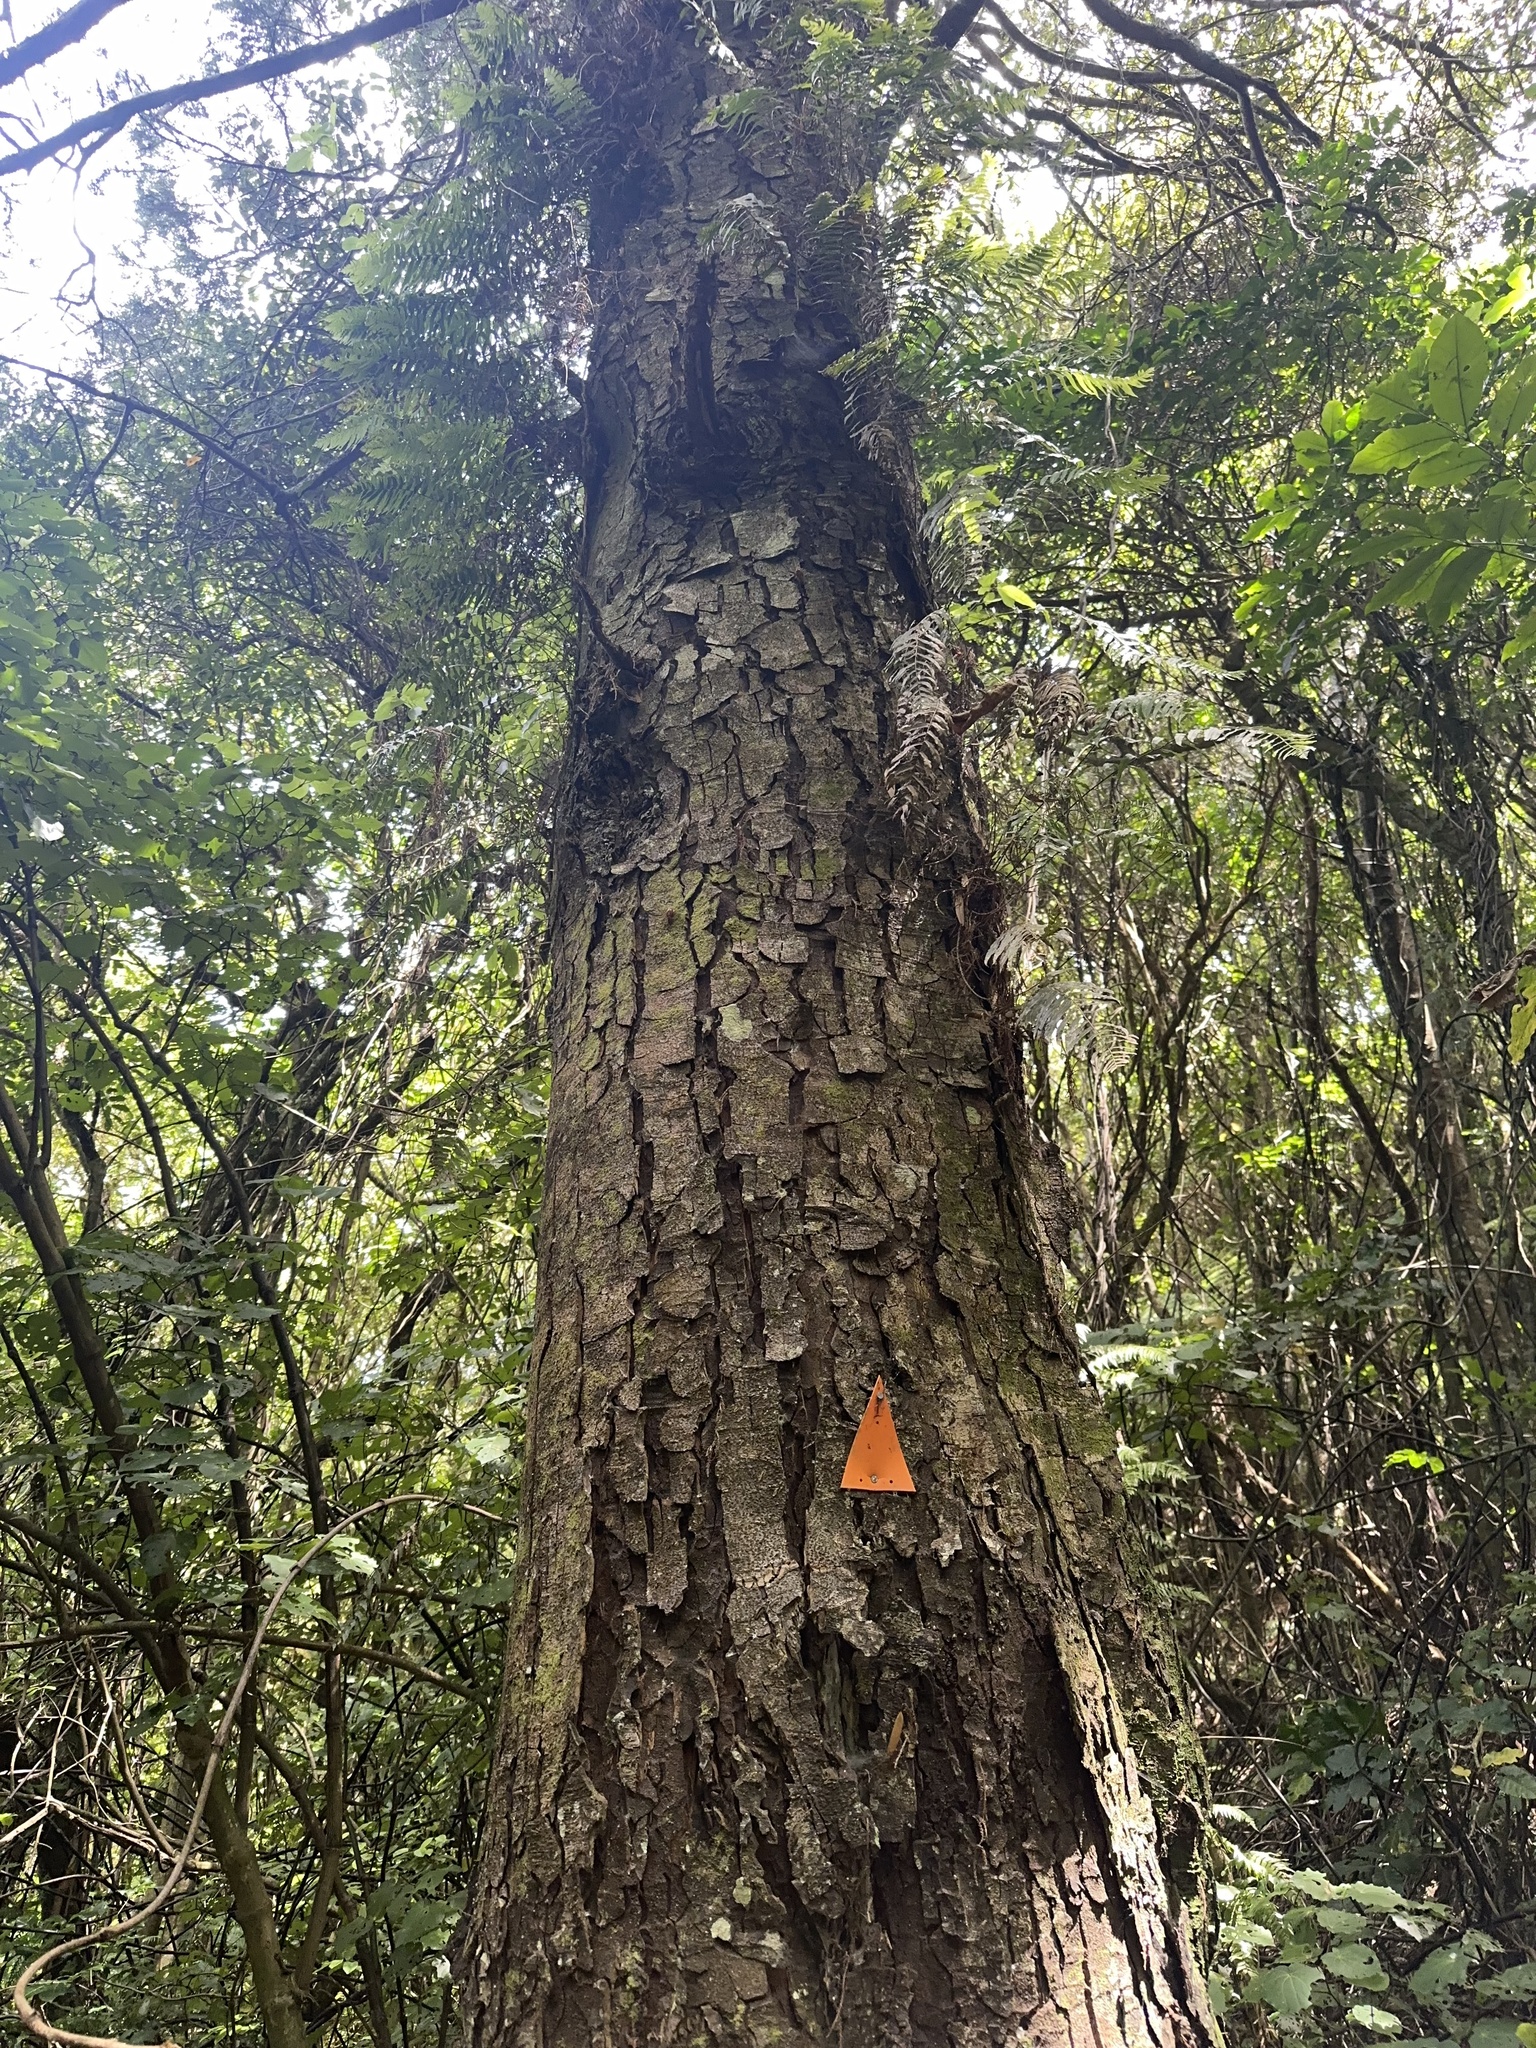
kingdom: Plantae
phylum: Tracheophyta
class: Pinopsida
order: Pinales
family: Podocarpaceae
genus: Dacrycarpus
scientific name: Dacrycarpus dacrydioides
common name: White pine
